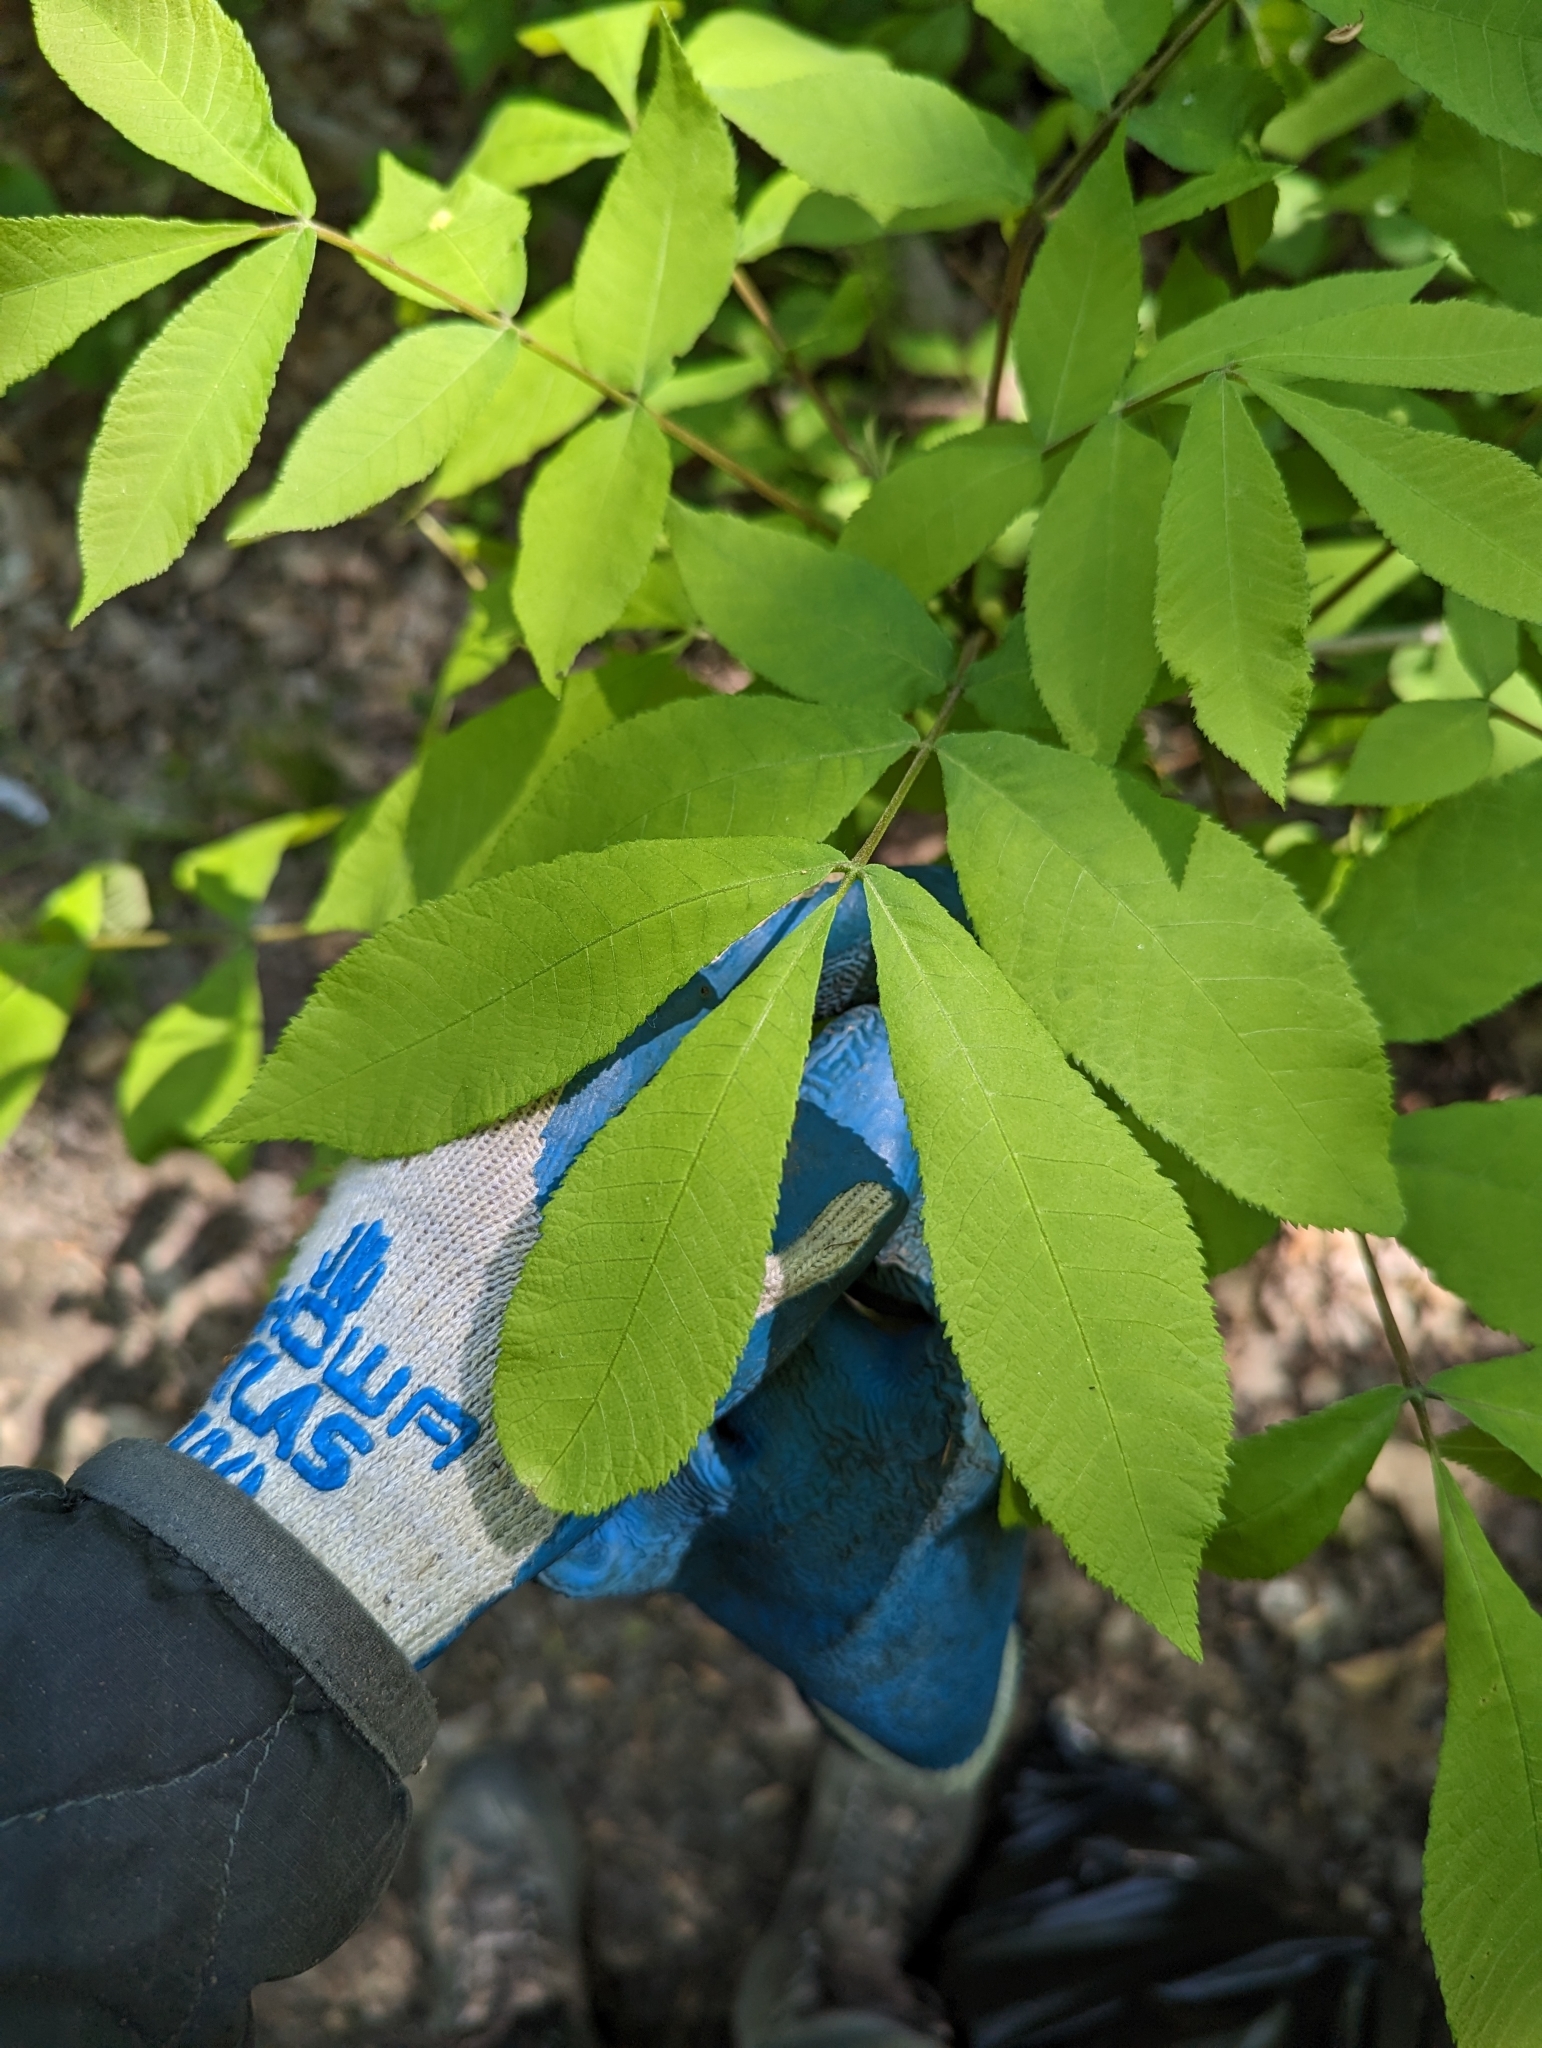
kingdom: Plantae
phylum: Tracheophyta
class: Magnoliopsida
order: Fagales
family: Juglandaceae
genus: Carya
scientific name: Carya cordiformis
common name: Bitternut hickory
